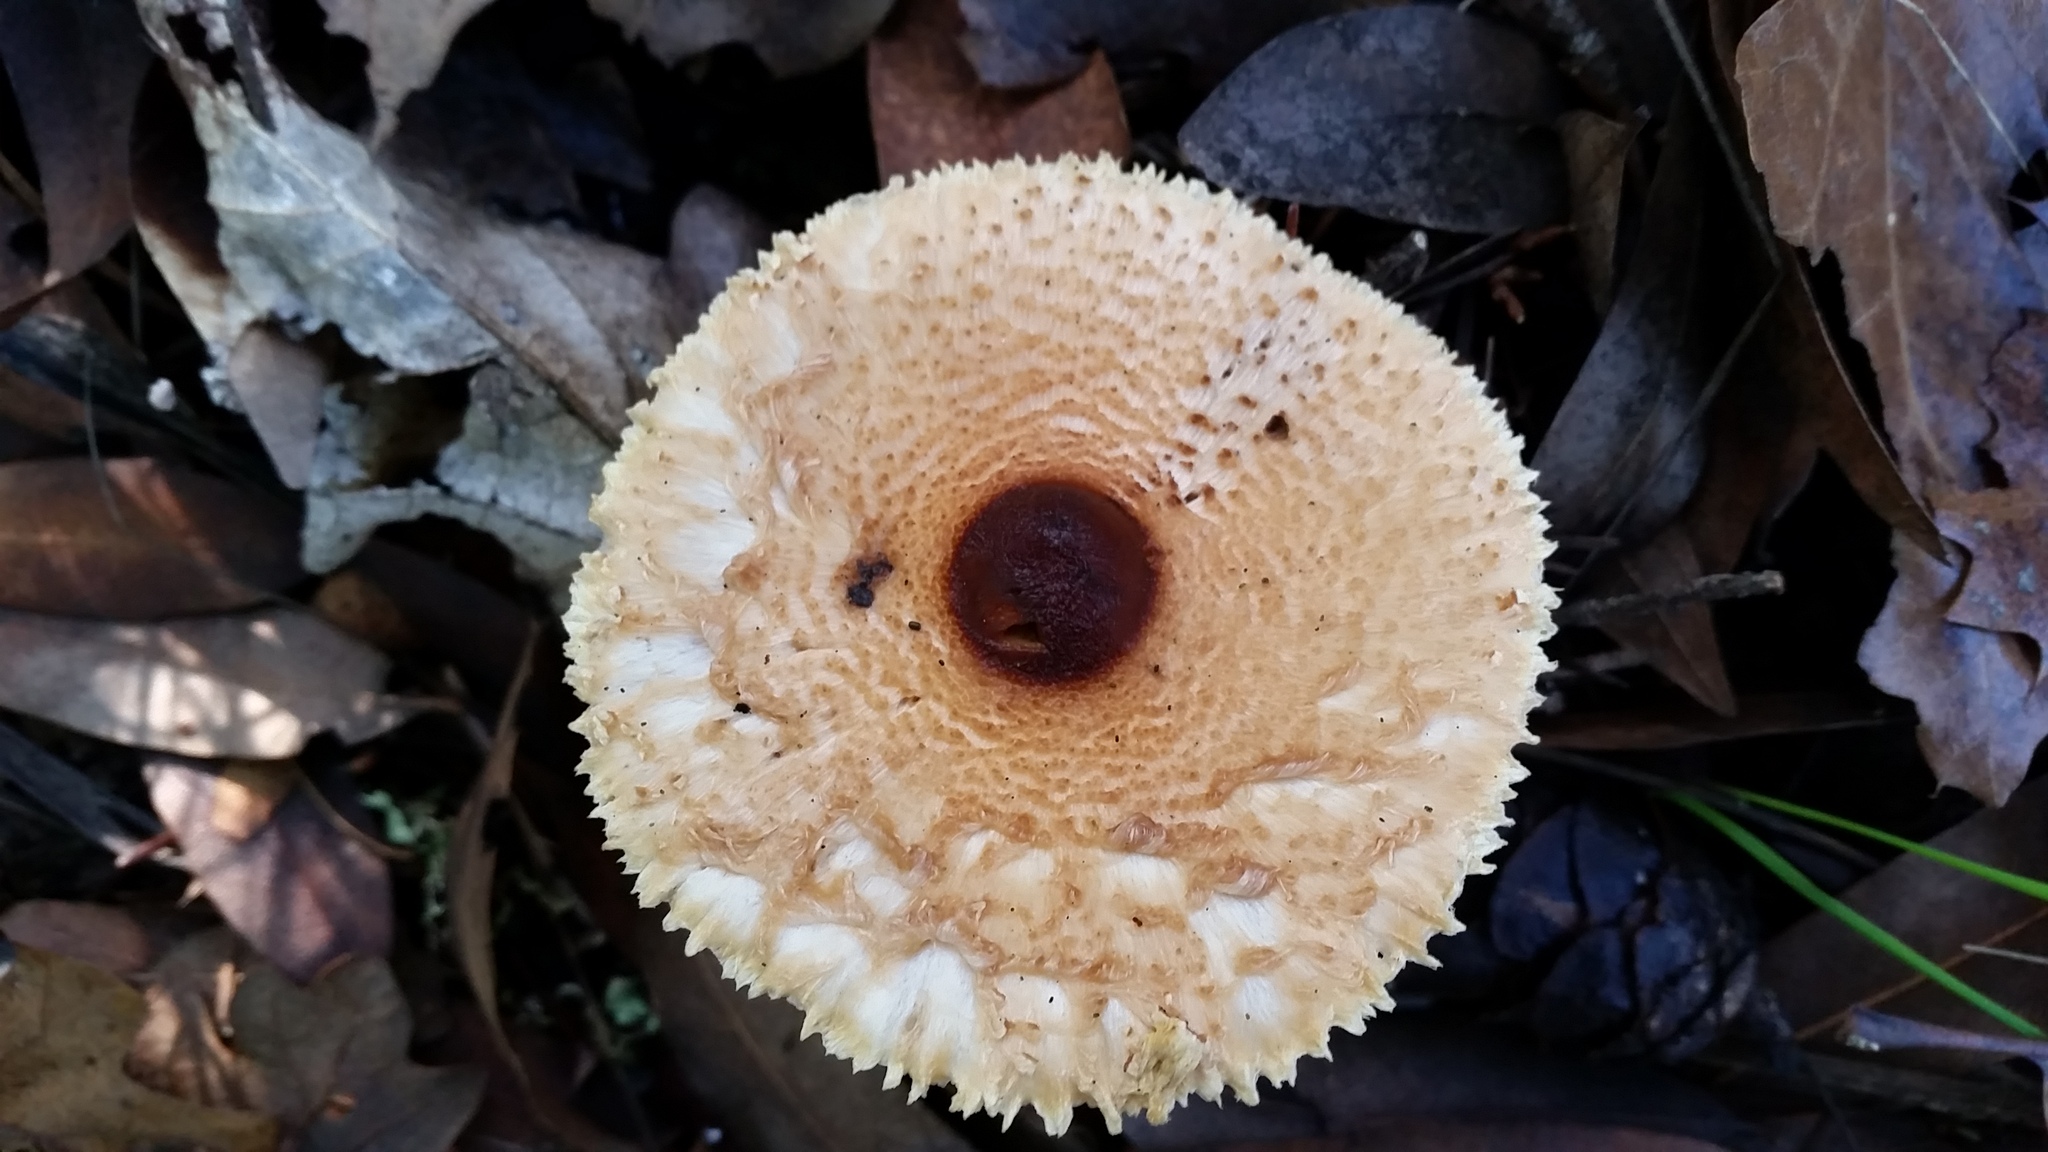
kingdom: Fungi
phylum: Basidiomycota
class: Agaricomycetes
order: Agaricales
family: Agaricaceae
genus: Lepiota
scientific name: Lepiota magnispora
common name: Yellowfoot dapperling
